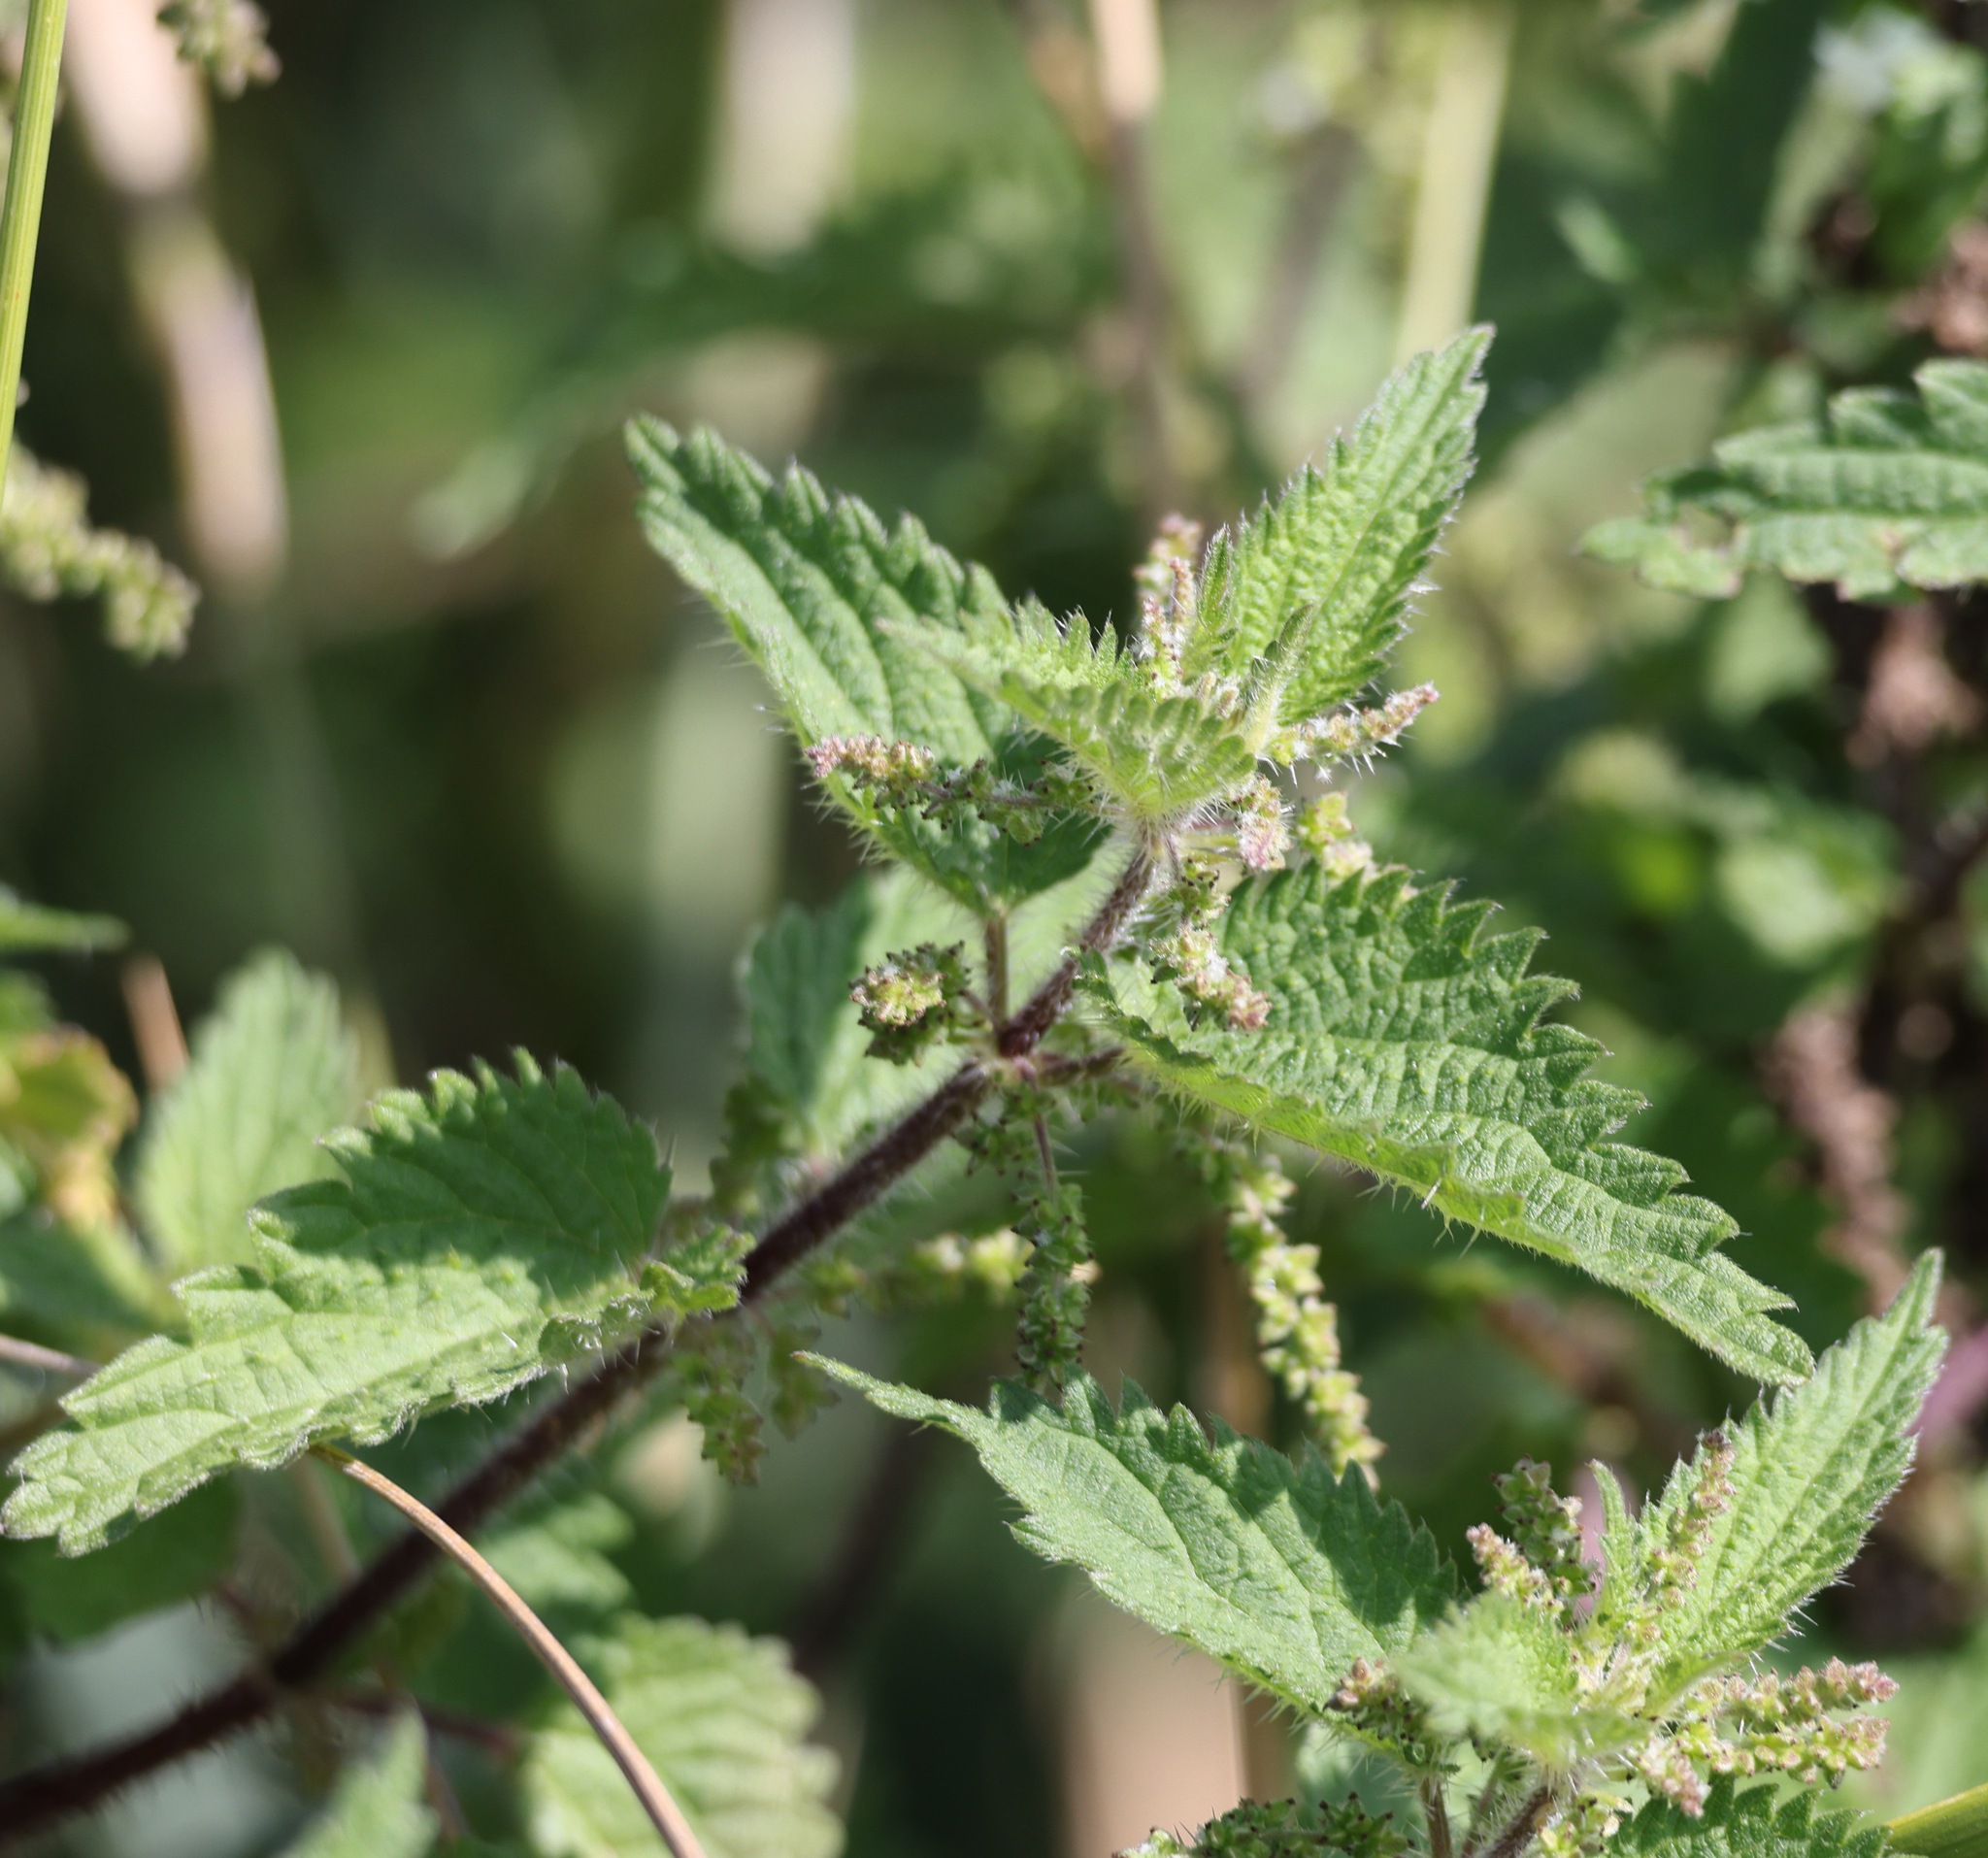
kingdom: Plantae
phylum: Tracheophyta
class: Magnoliopsida
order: Rosales
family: Urticaceae
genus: Urtica
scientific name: Urtica dioica
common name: Common nettle
